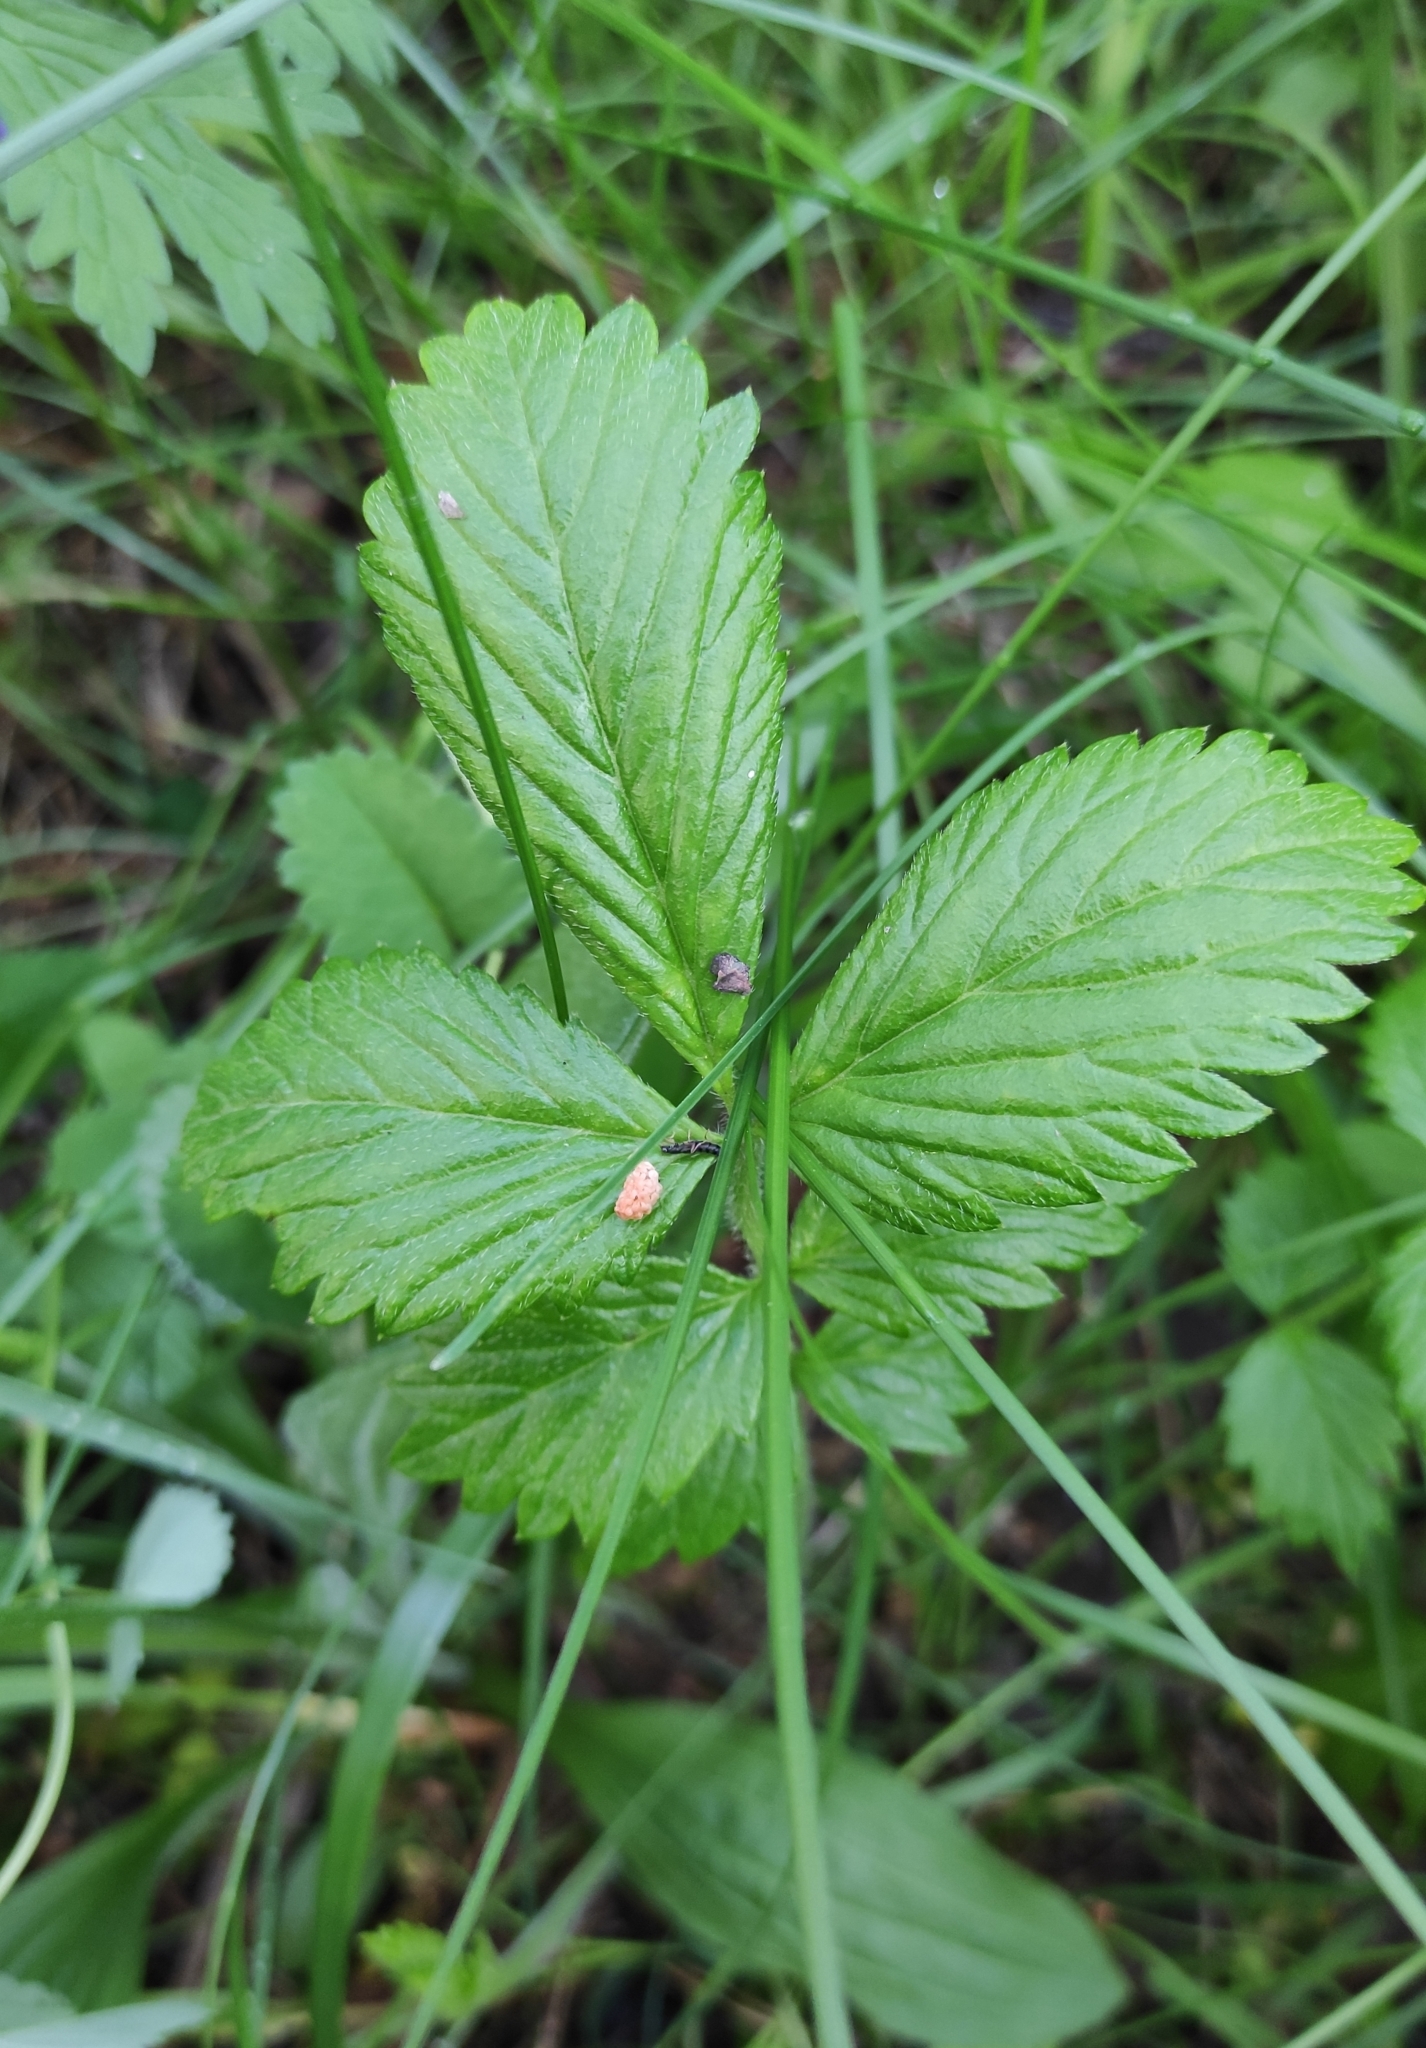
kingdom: Plantae
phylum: Tracheophyta
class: Magnoliopsida
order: Rosales
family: Rosaceae
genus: Potentilla
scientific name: Potentilla fragarioides
